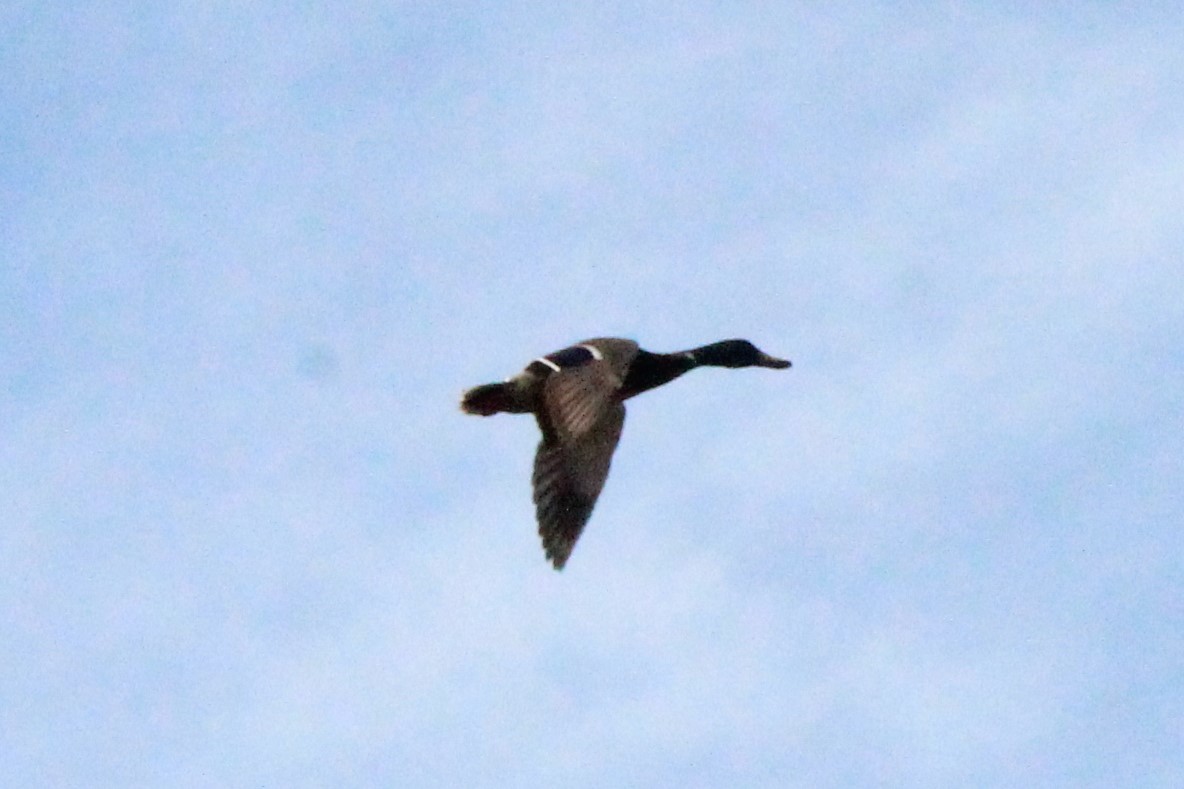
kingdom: Animalia
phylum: Chordata
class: Aves
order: Anseriformes
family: Anatidae
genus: Anas
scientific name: Anas platyrhynchos
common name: Mallard
